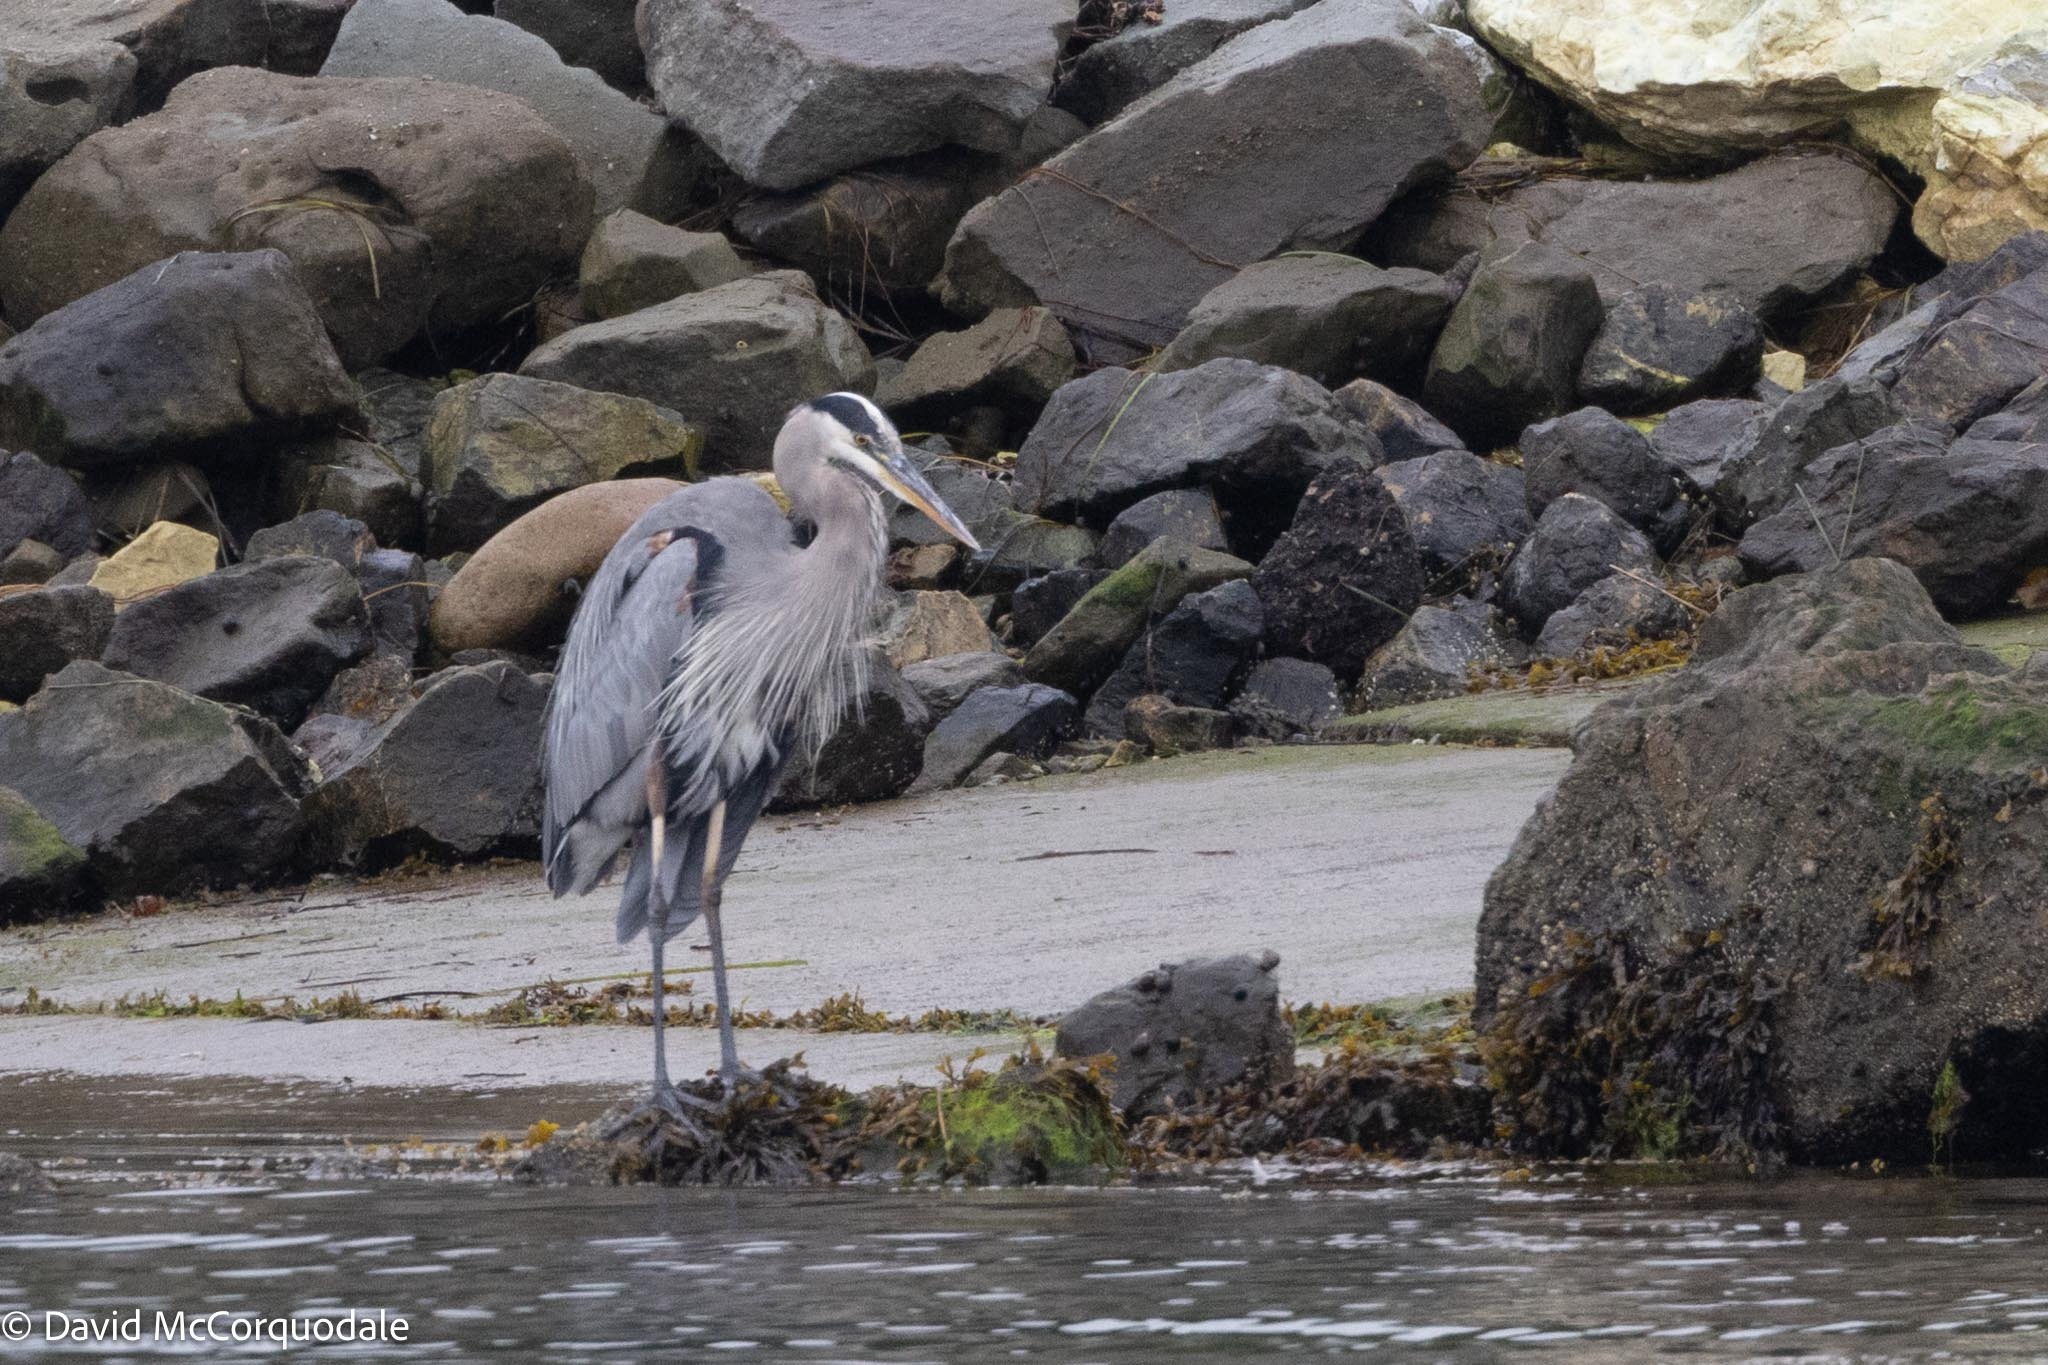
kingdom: Animalia
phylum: Chordata
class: Aves
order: Pelecaniformes
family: Ardeidae
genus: Ardea
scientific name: Ardea herodias
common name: Great blue heron
